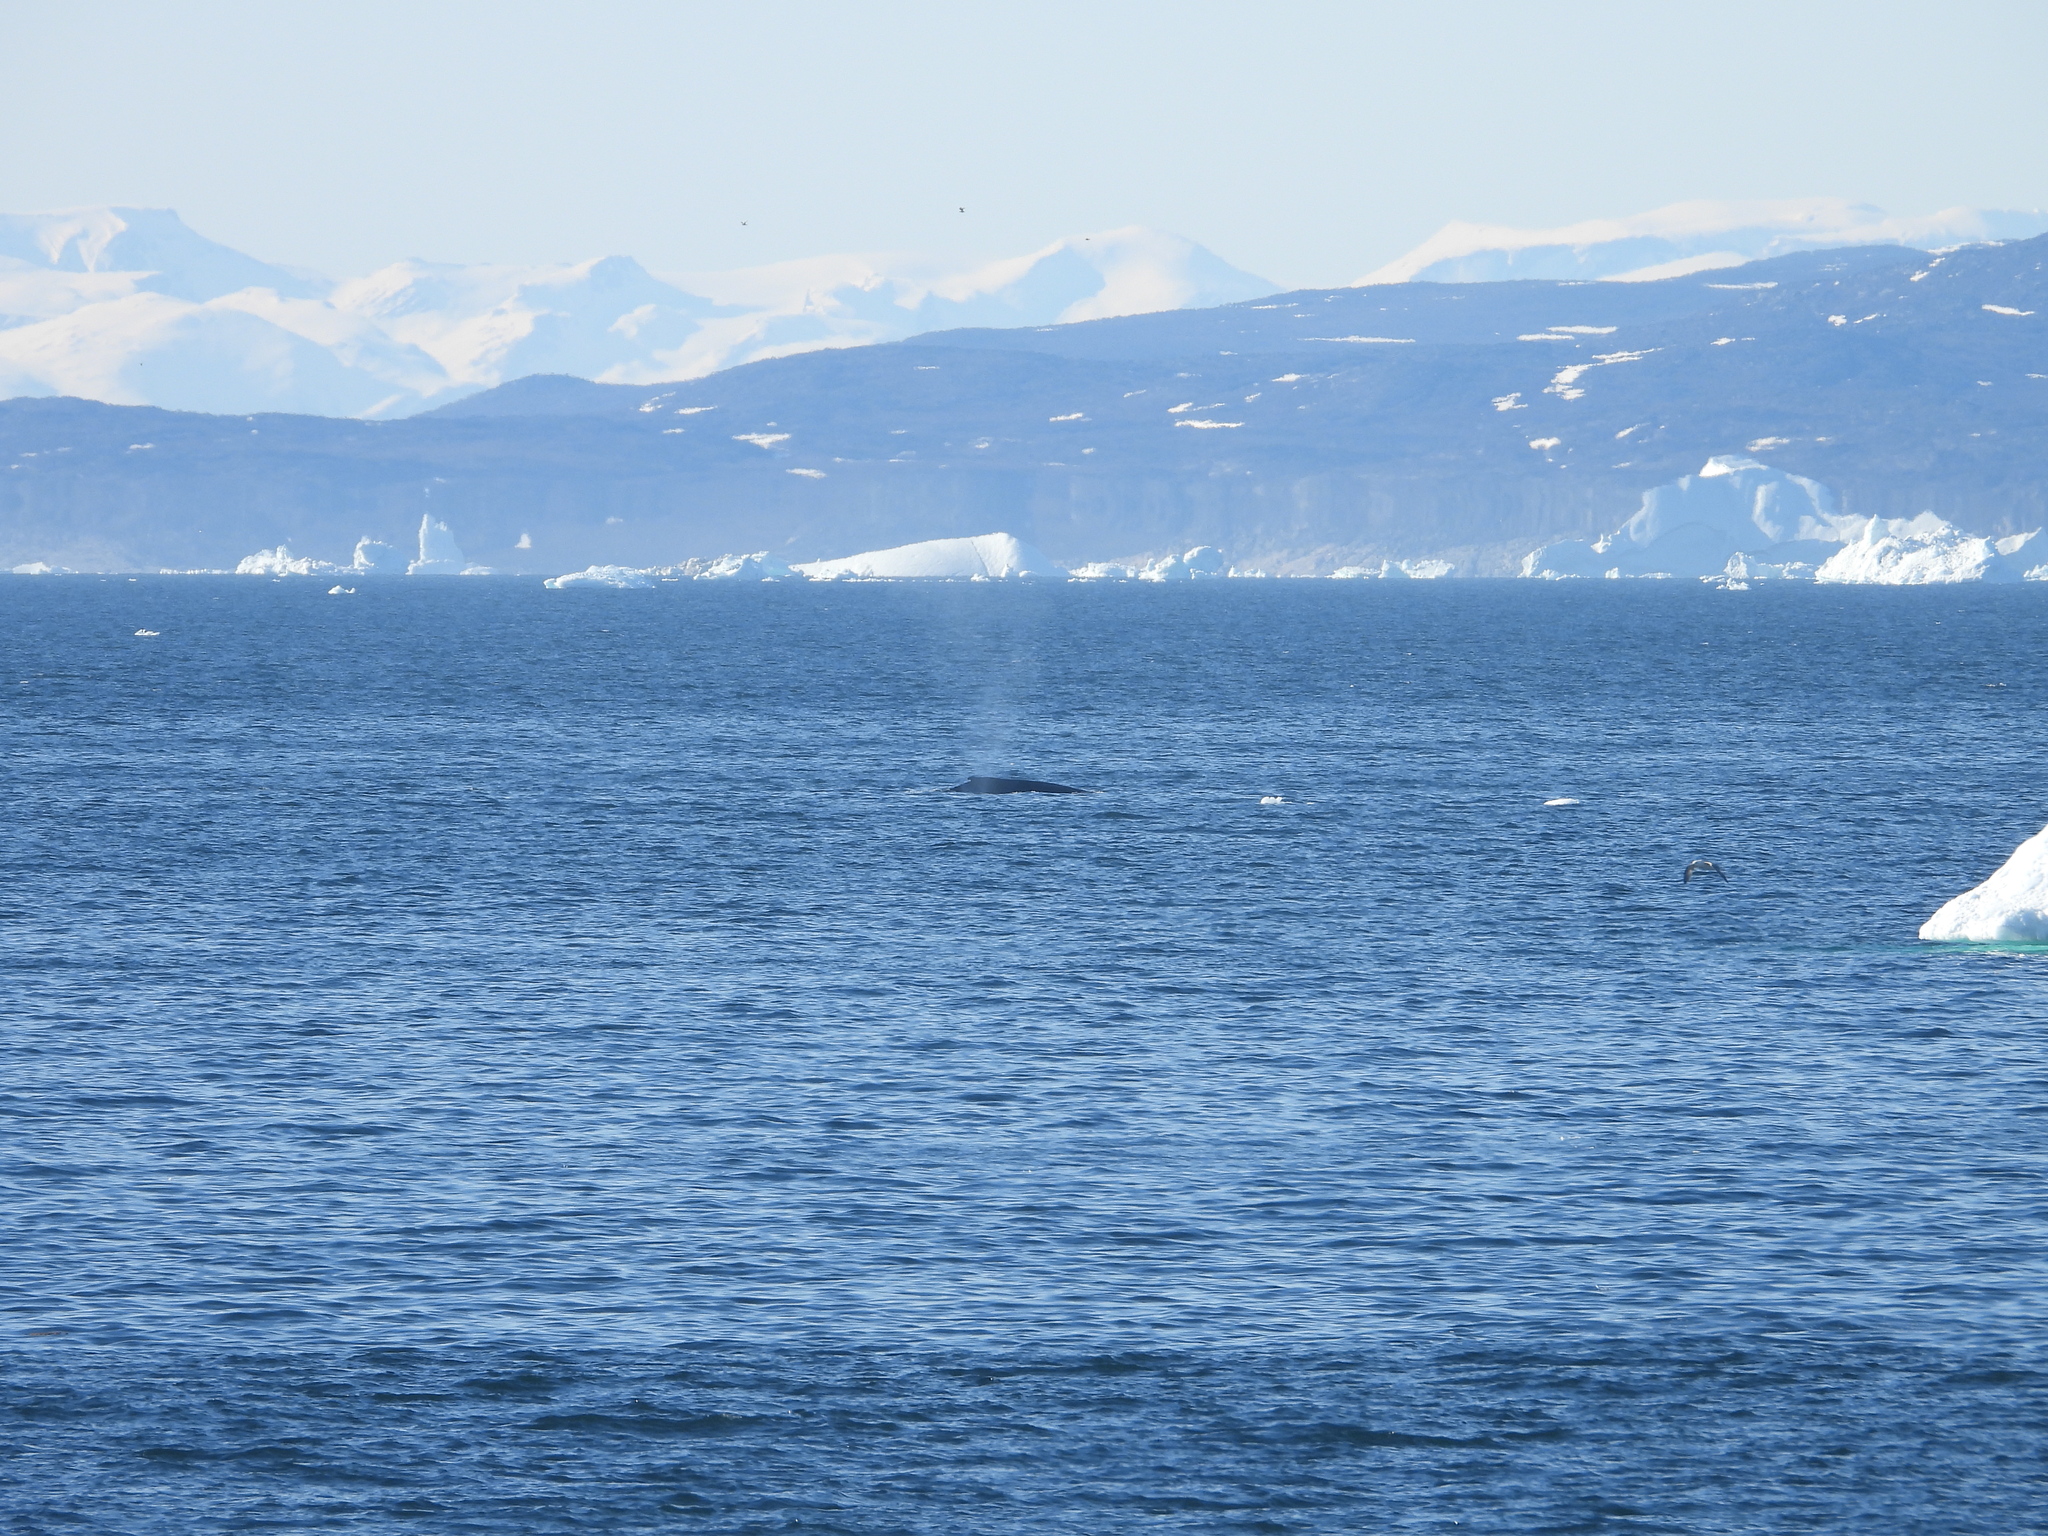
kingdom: Animalia
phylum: Chordata
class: Mammalia
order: Cetacea
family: Balaenopteridae
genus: Megaptera
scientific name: Megaptera novaeangliae
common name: Humpback whale
